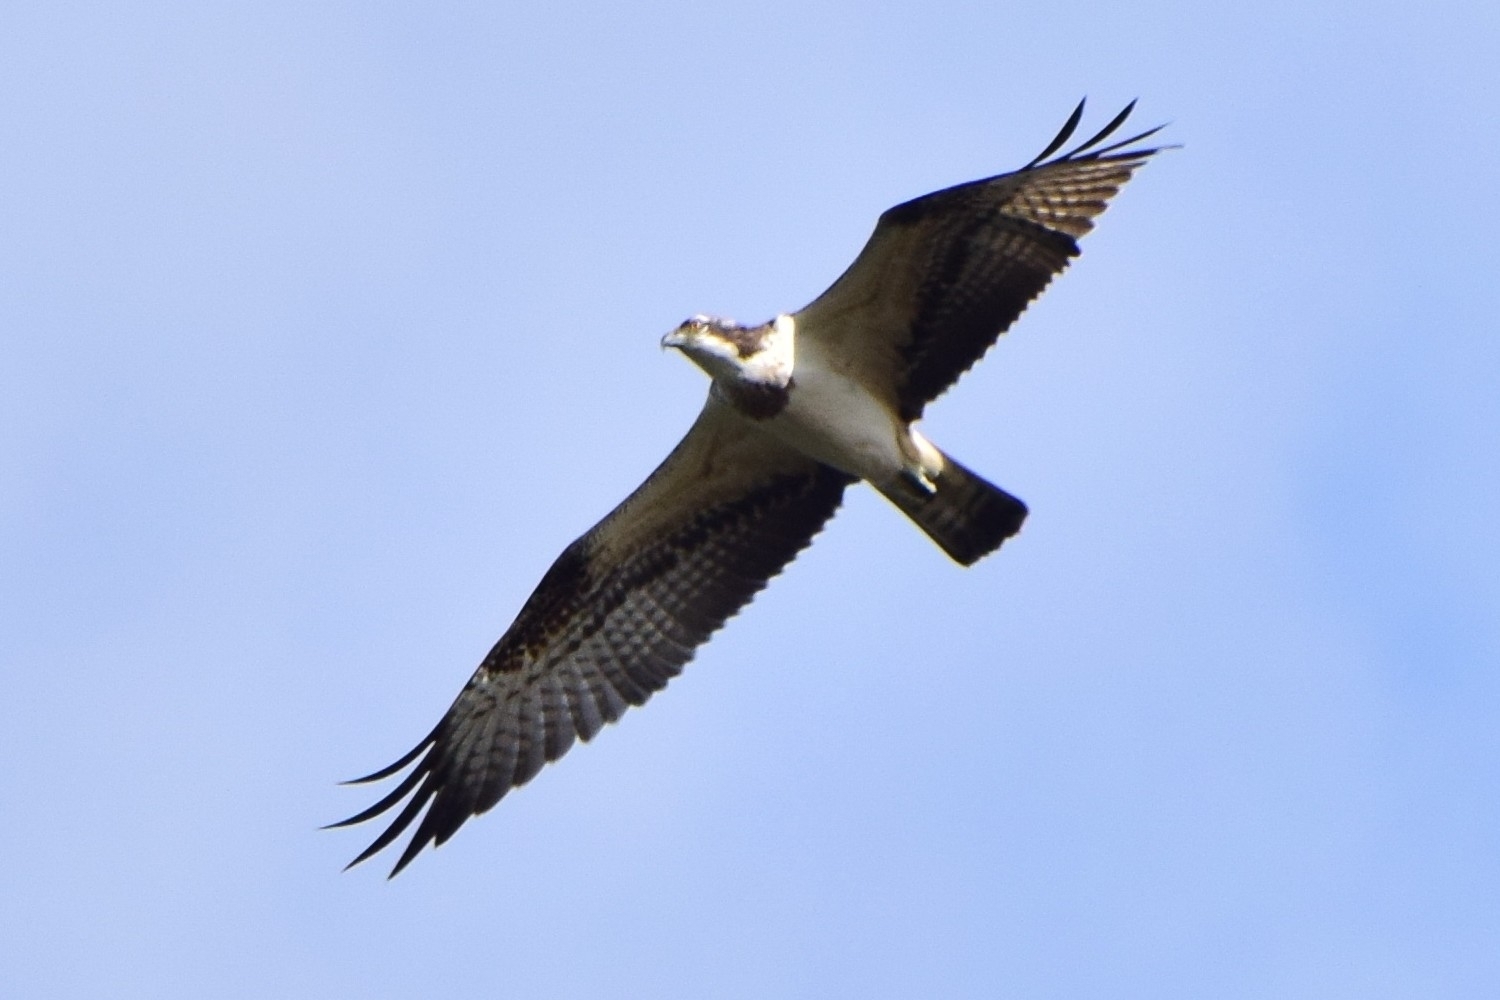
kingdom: Animalia
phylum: Chordata
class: Aves
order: Accipitriformes
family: Pandionidae
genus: Pandion
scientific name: Pandion haliaetus
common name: Osprey
